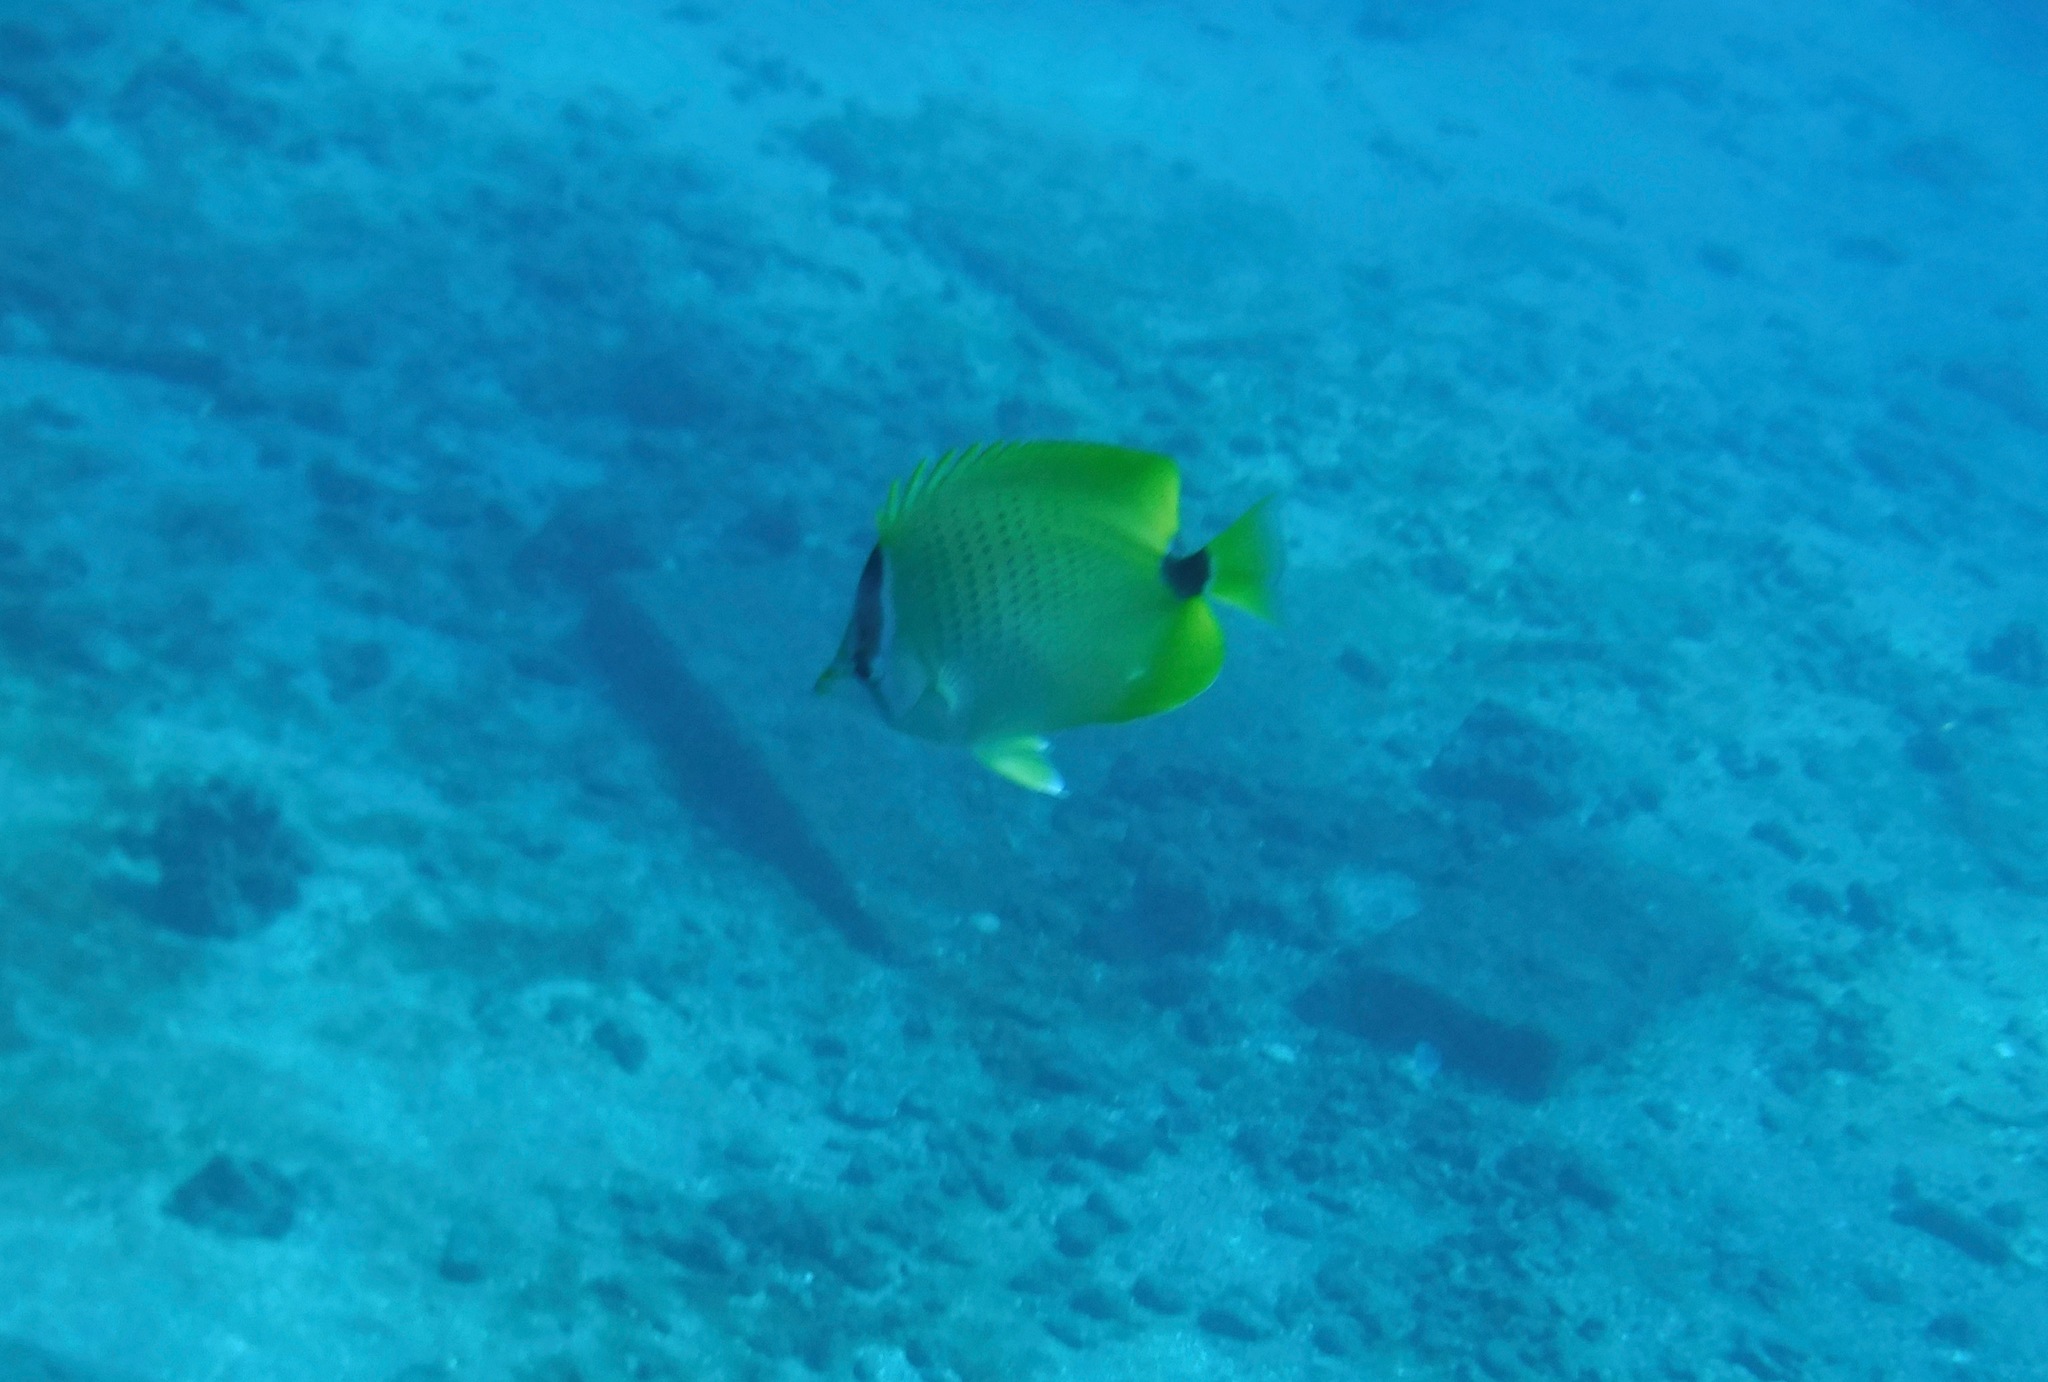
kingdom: Animalia
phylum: Chordata
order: Perciformes
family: Chaetodontidae
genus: Chaetodon
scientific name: Chaetodon miliaris
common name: Lemon butterflyfish
